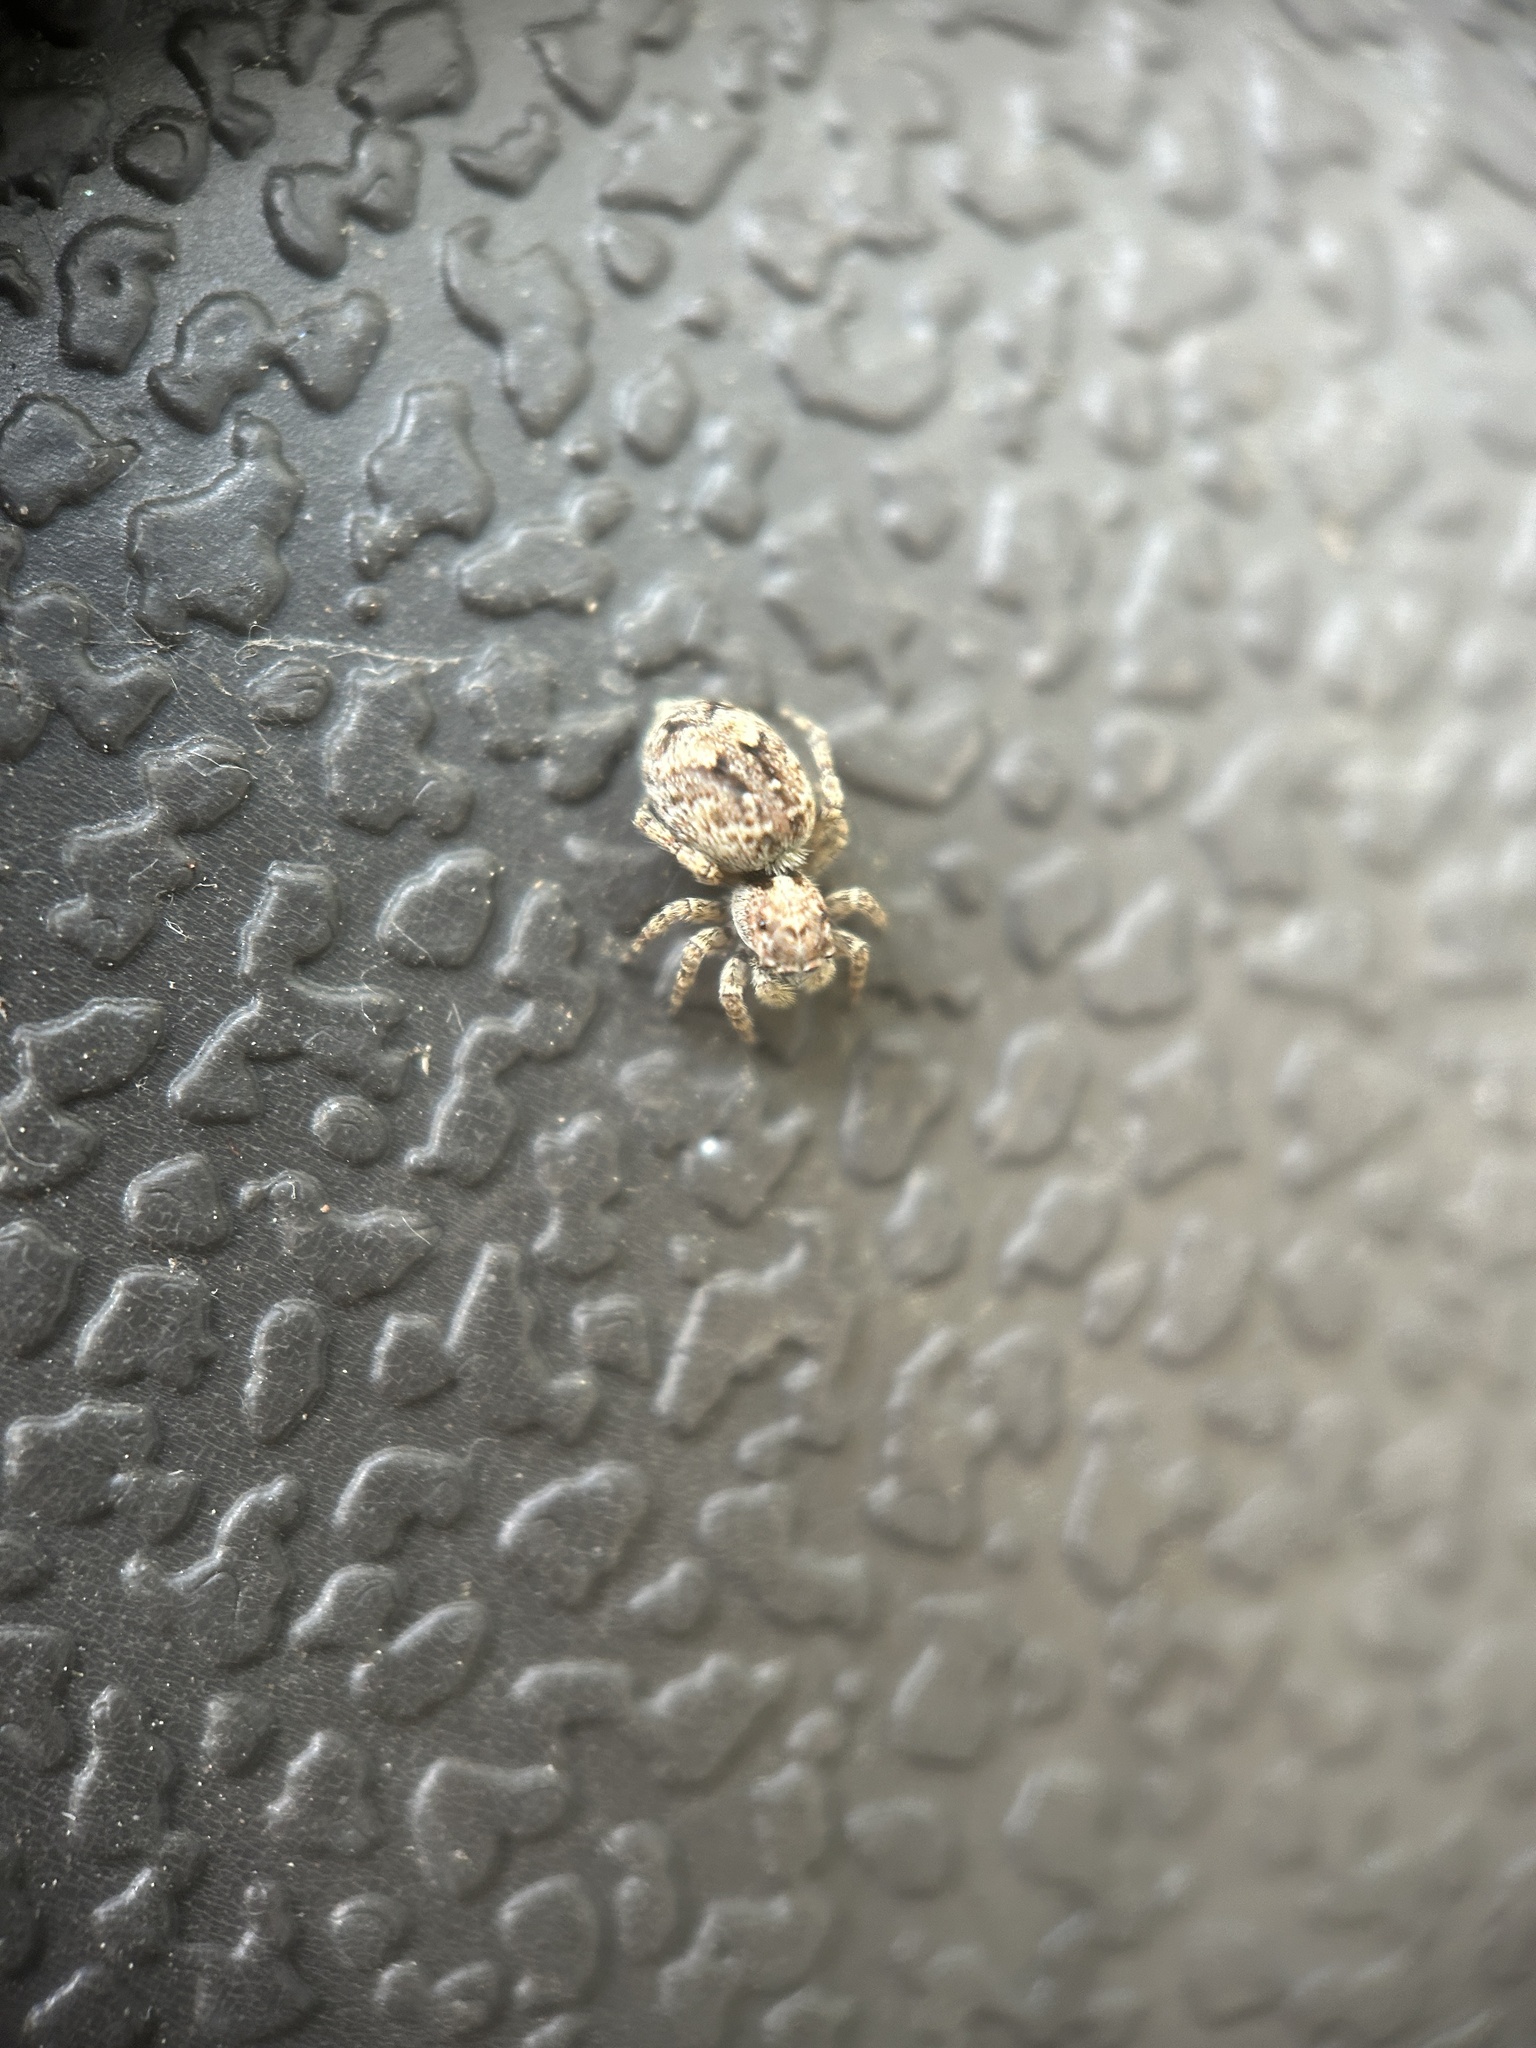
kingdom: Animalia
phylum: Arthropoda
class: Arachnida
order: Araneae
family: Salticidae
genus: Attulus
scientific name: Attulus fasciger
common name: Asiatic wall jumping spider
